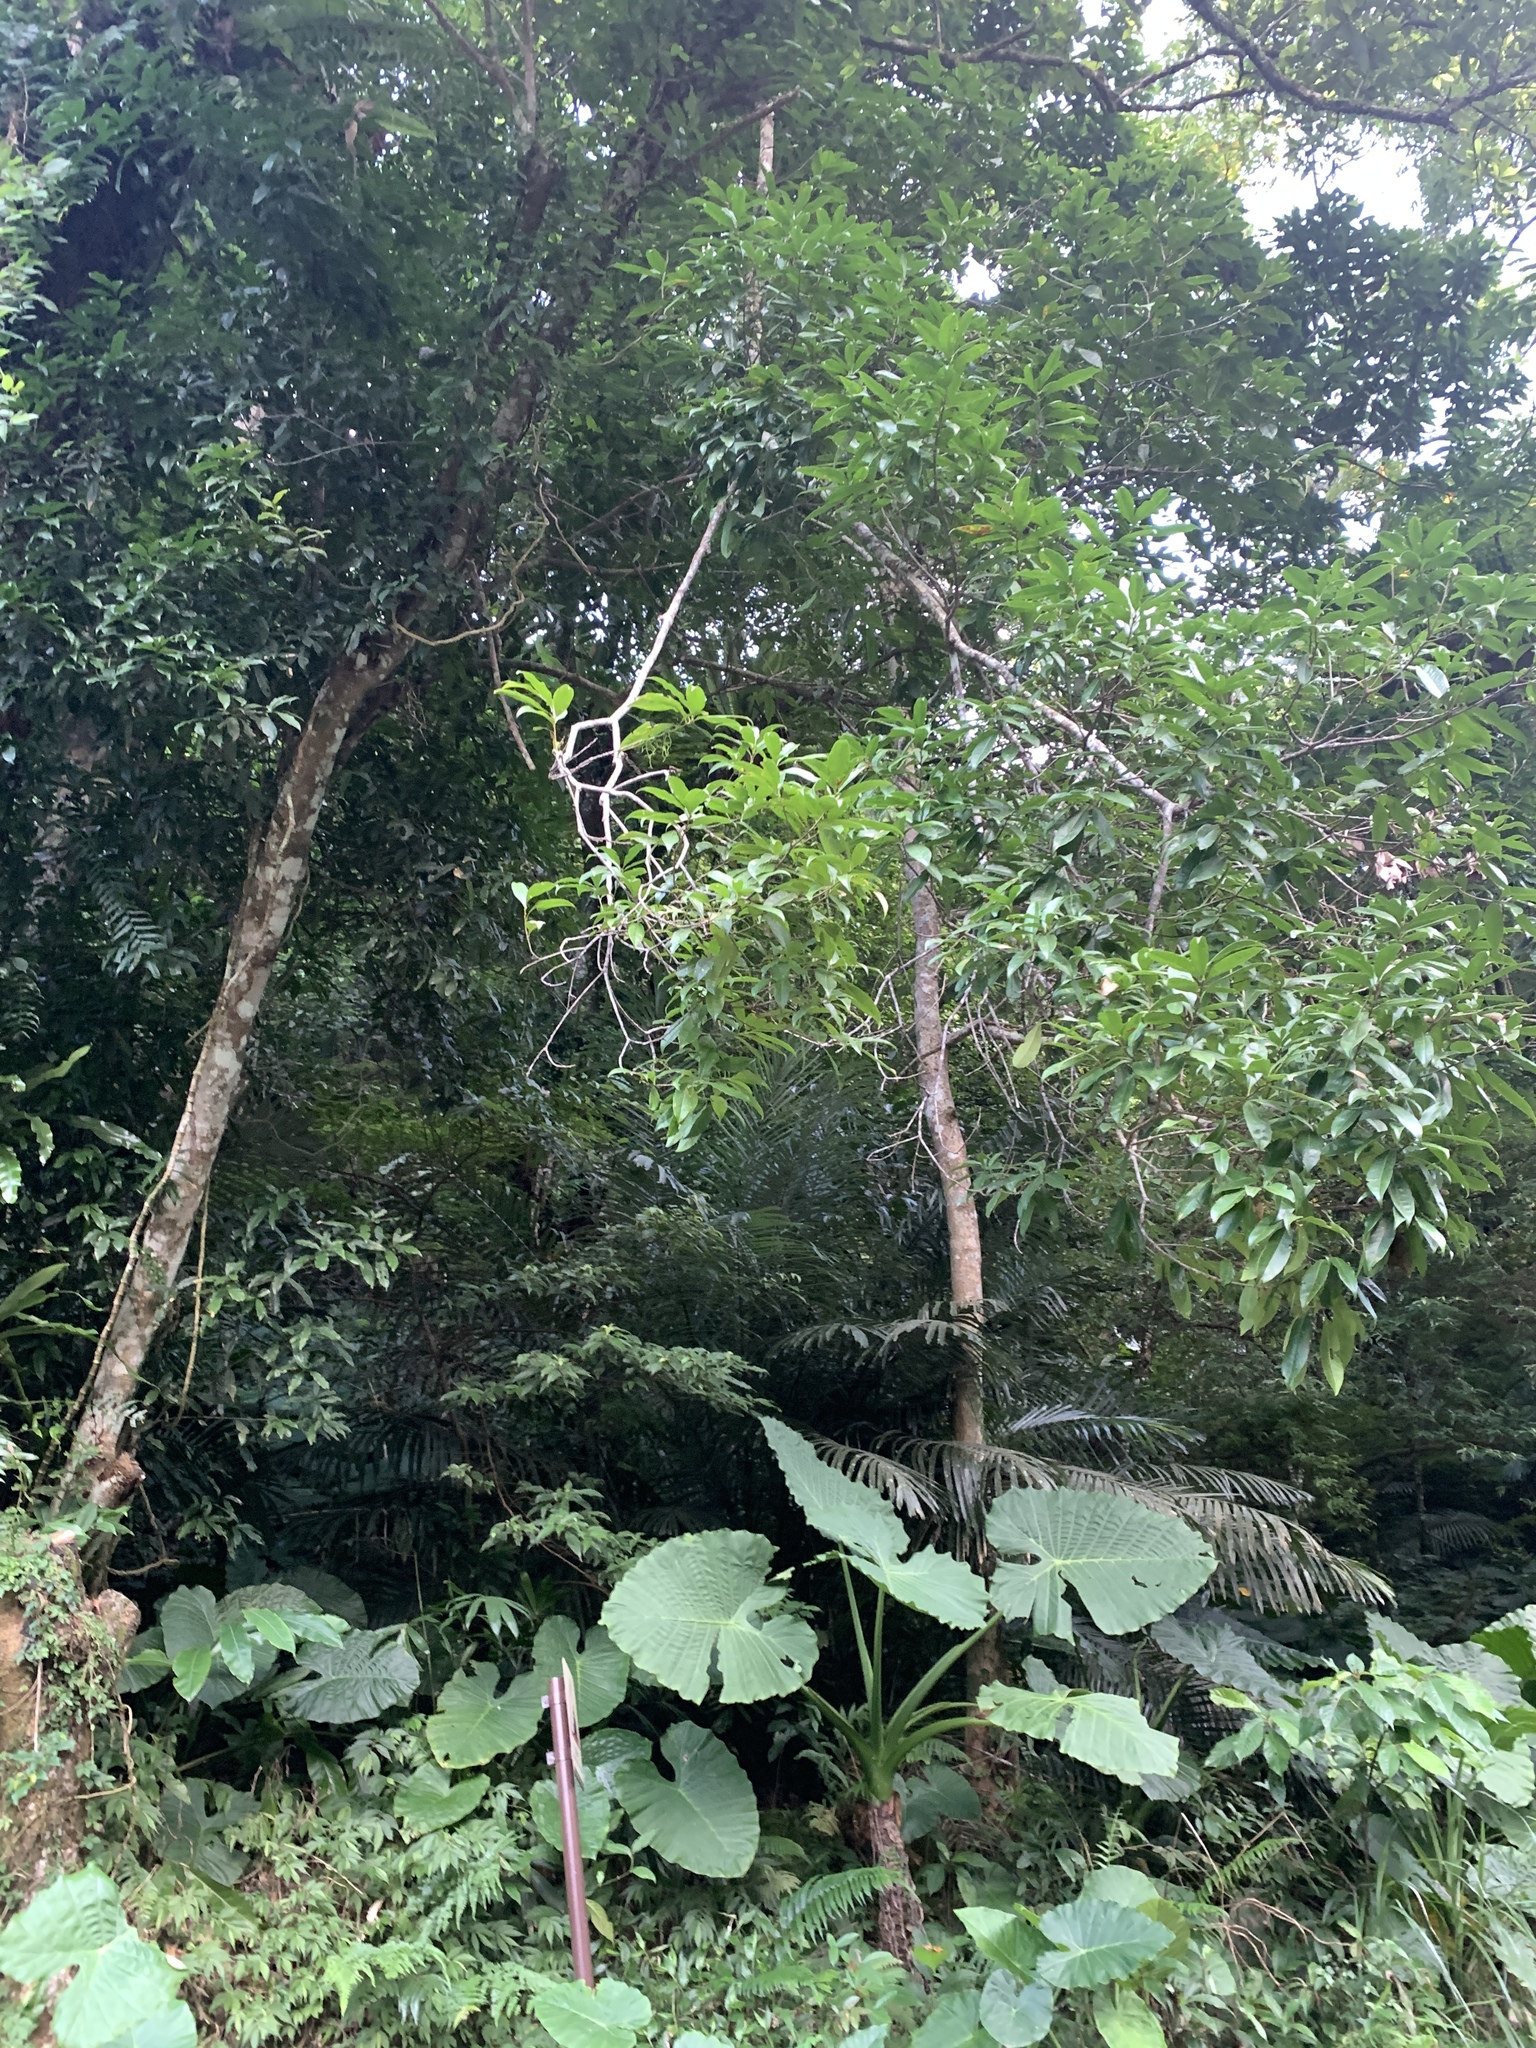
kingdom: Plantae
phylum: Tracheophyta
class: Magnoliopsida
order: Fagales
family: Fagaceae
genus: Lithocarpus
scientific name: Lithocarpus hancei
